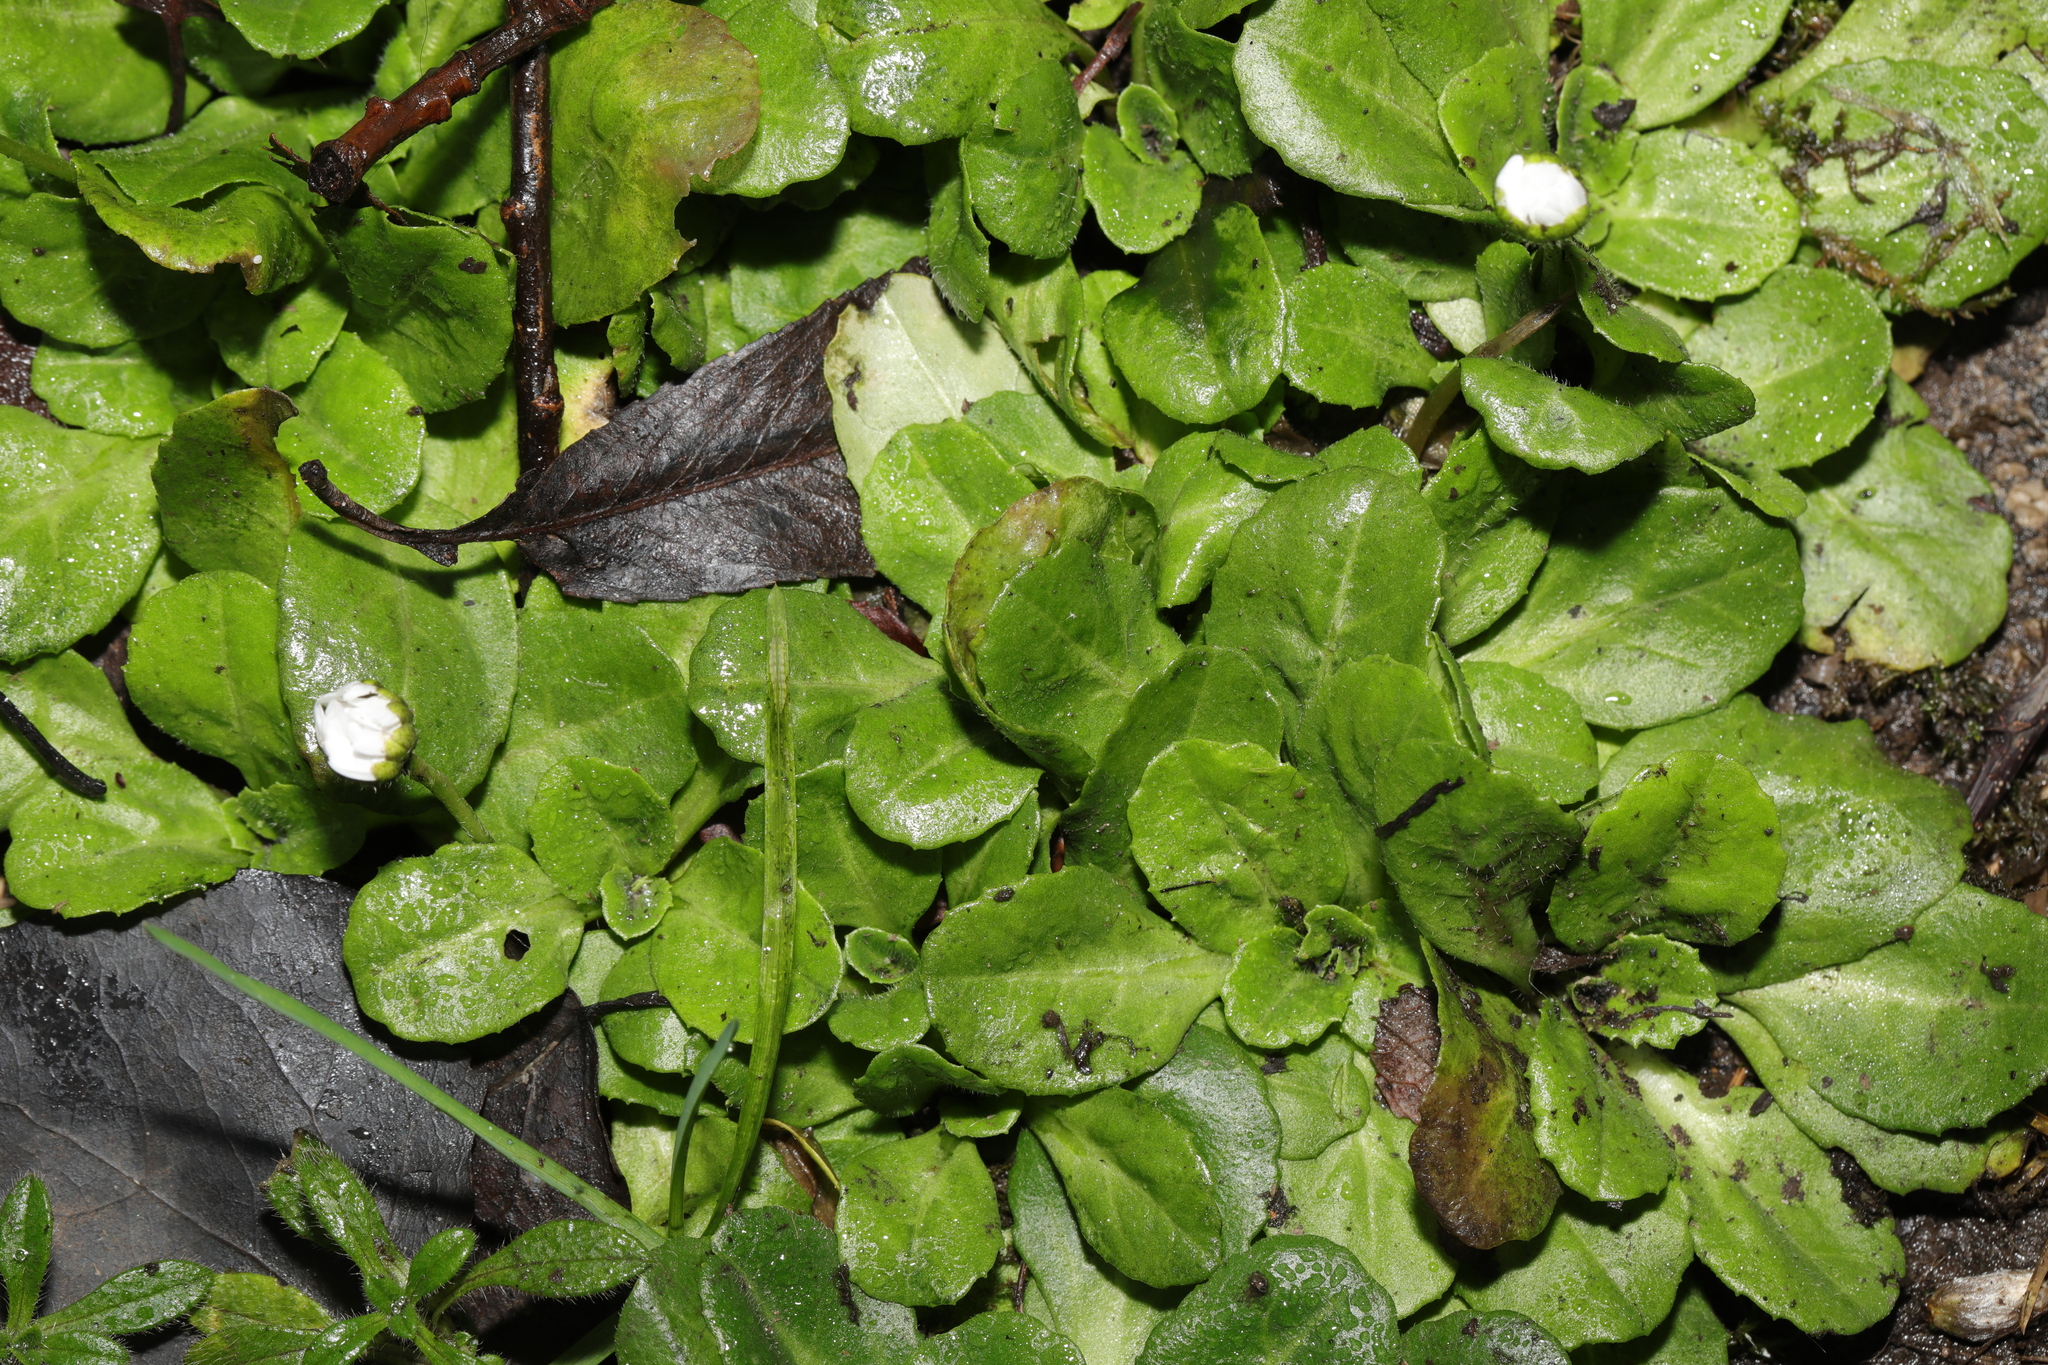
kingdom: Plantae
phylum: Tracheophyta
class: Magnoliopsida
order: Asterales
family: Asteraceae
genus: Bellis
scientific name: Bellis perennis
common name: Lawndaisy
